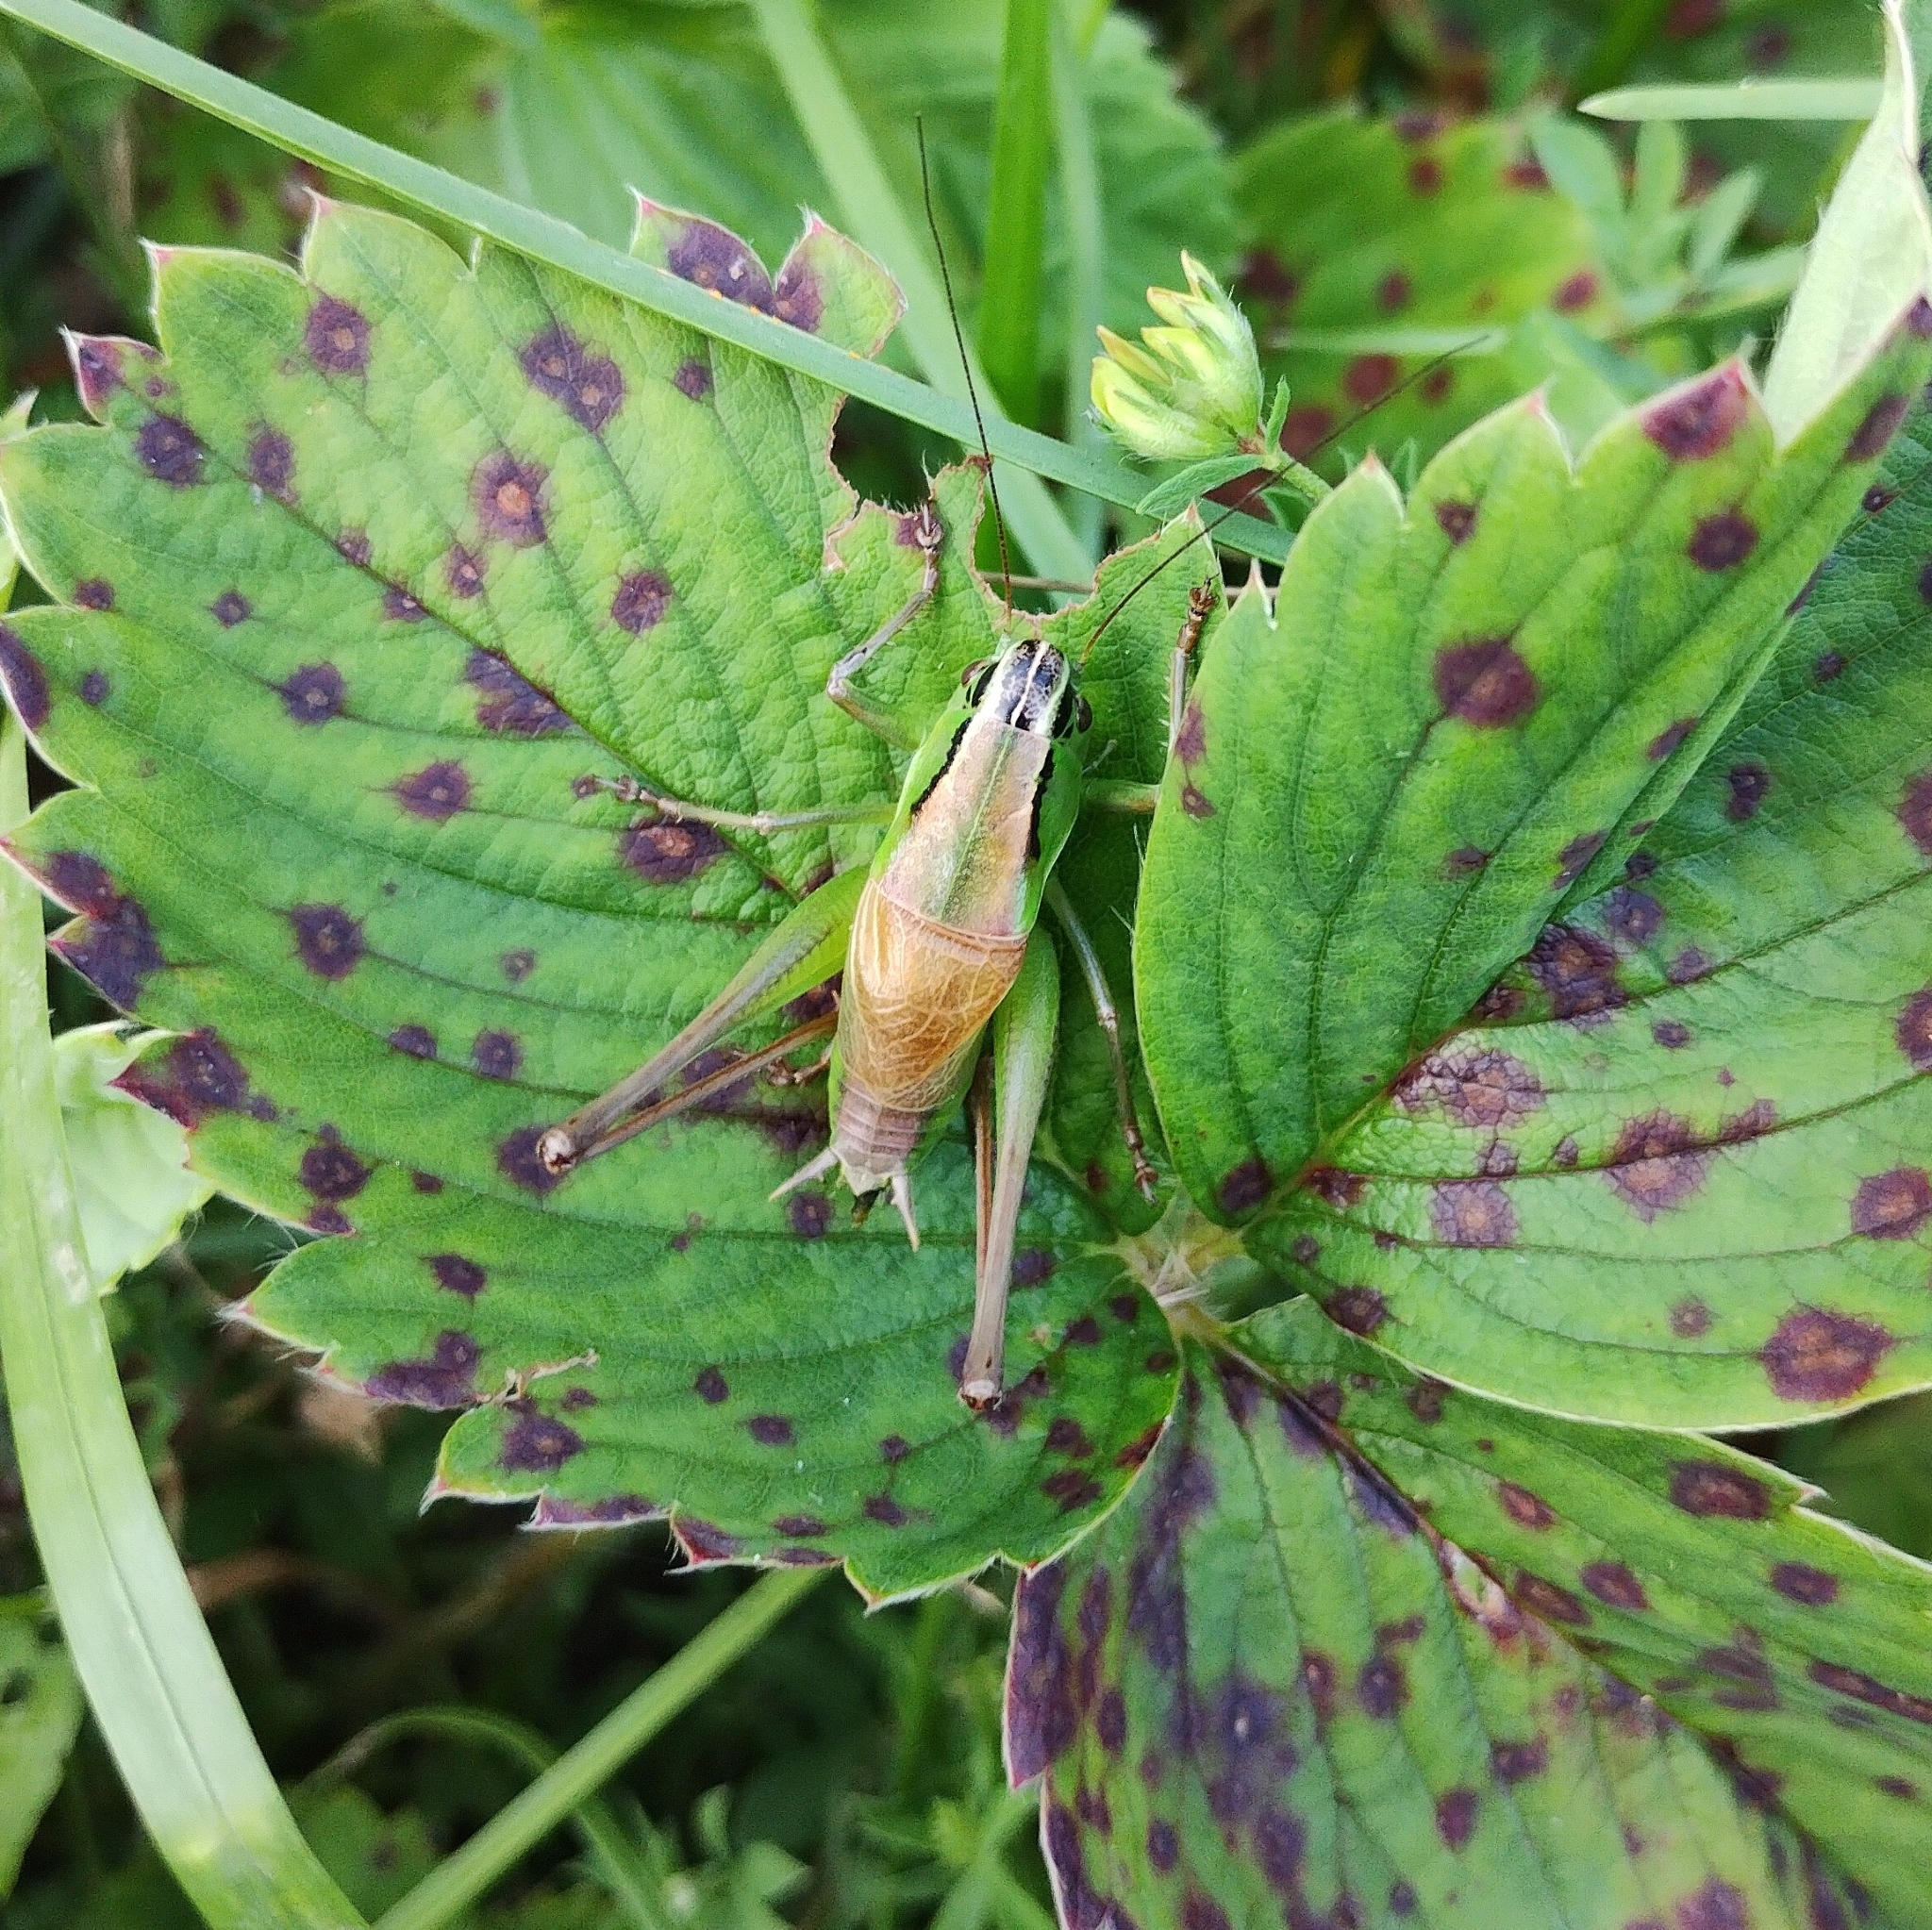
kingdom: Animalia
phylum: Arthropoda
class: Insecta
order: Orthoptera
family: Tettigoniidae
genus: Pholidoptera
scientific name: Pholidoptera frivaldszkyi
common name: Green dark bush-cricket
